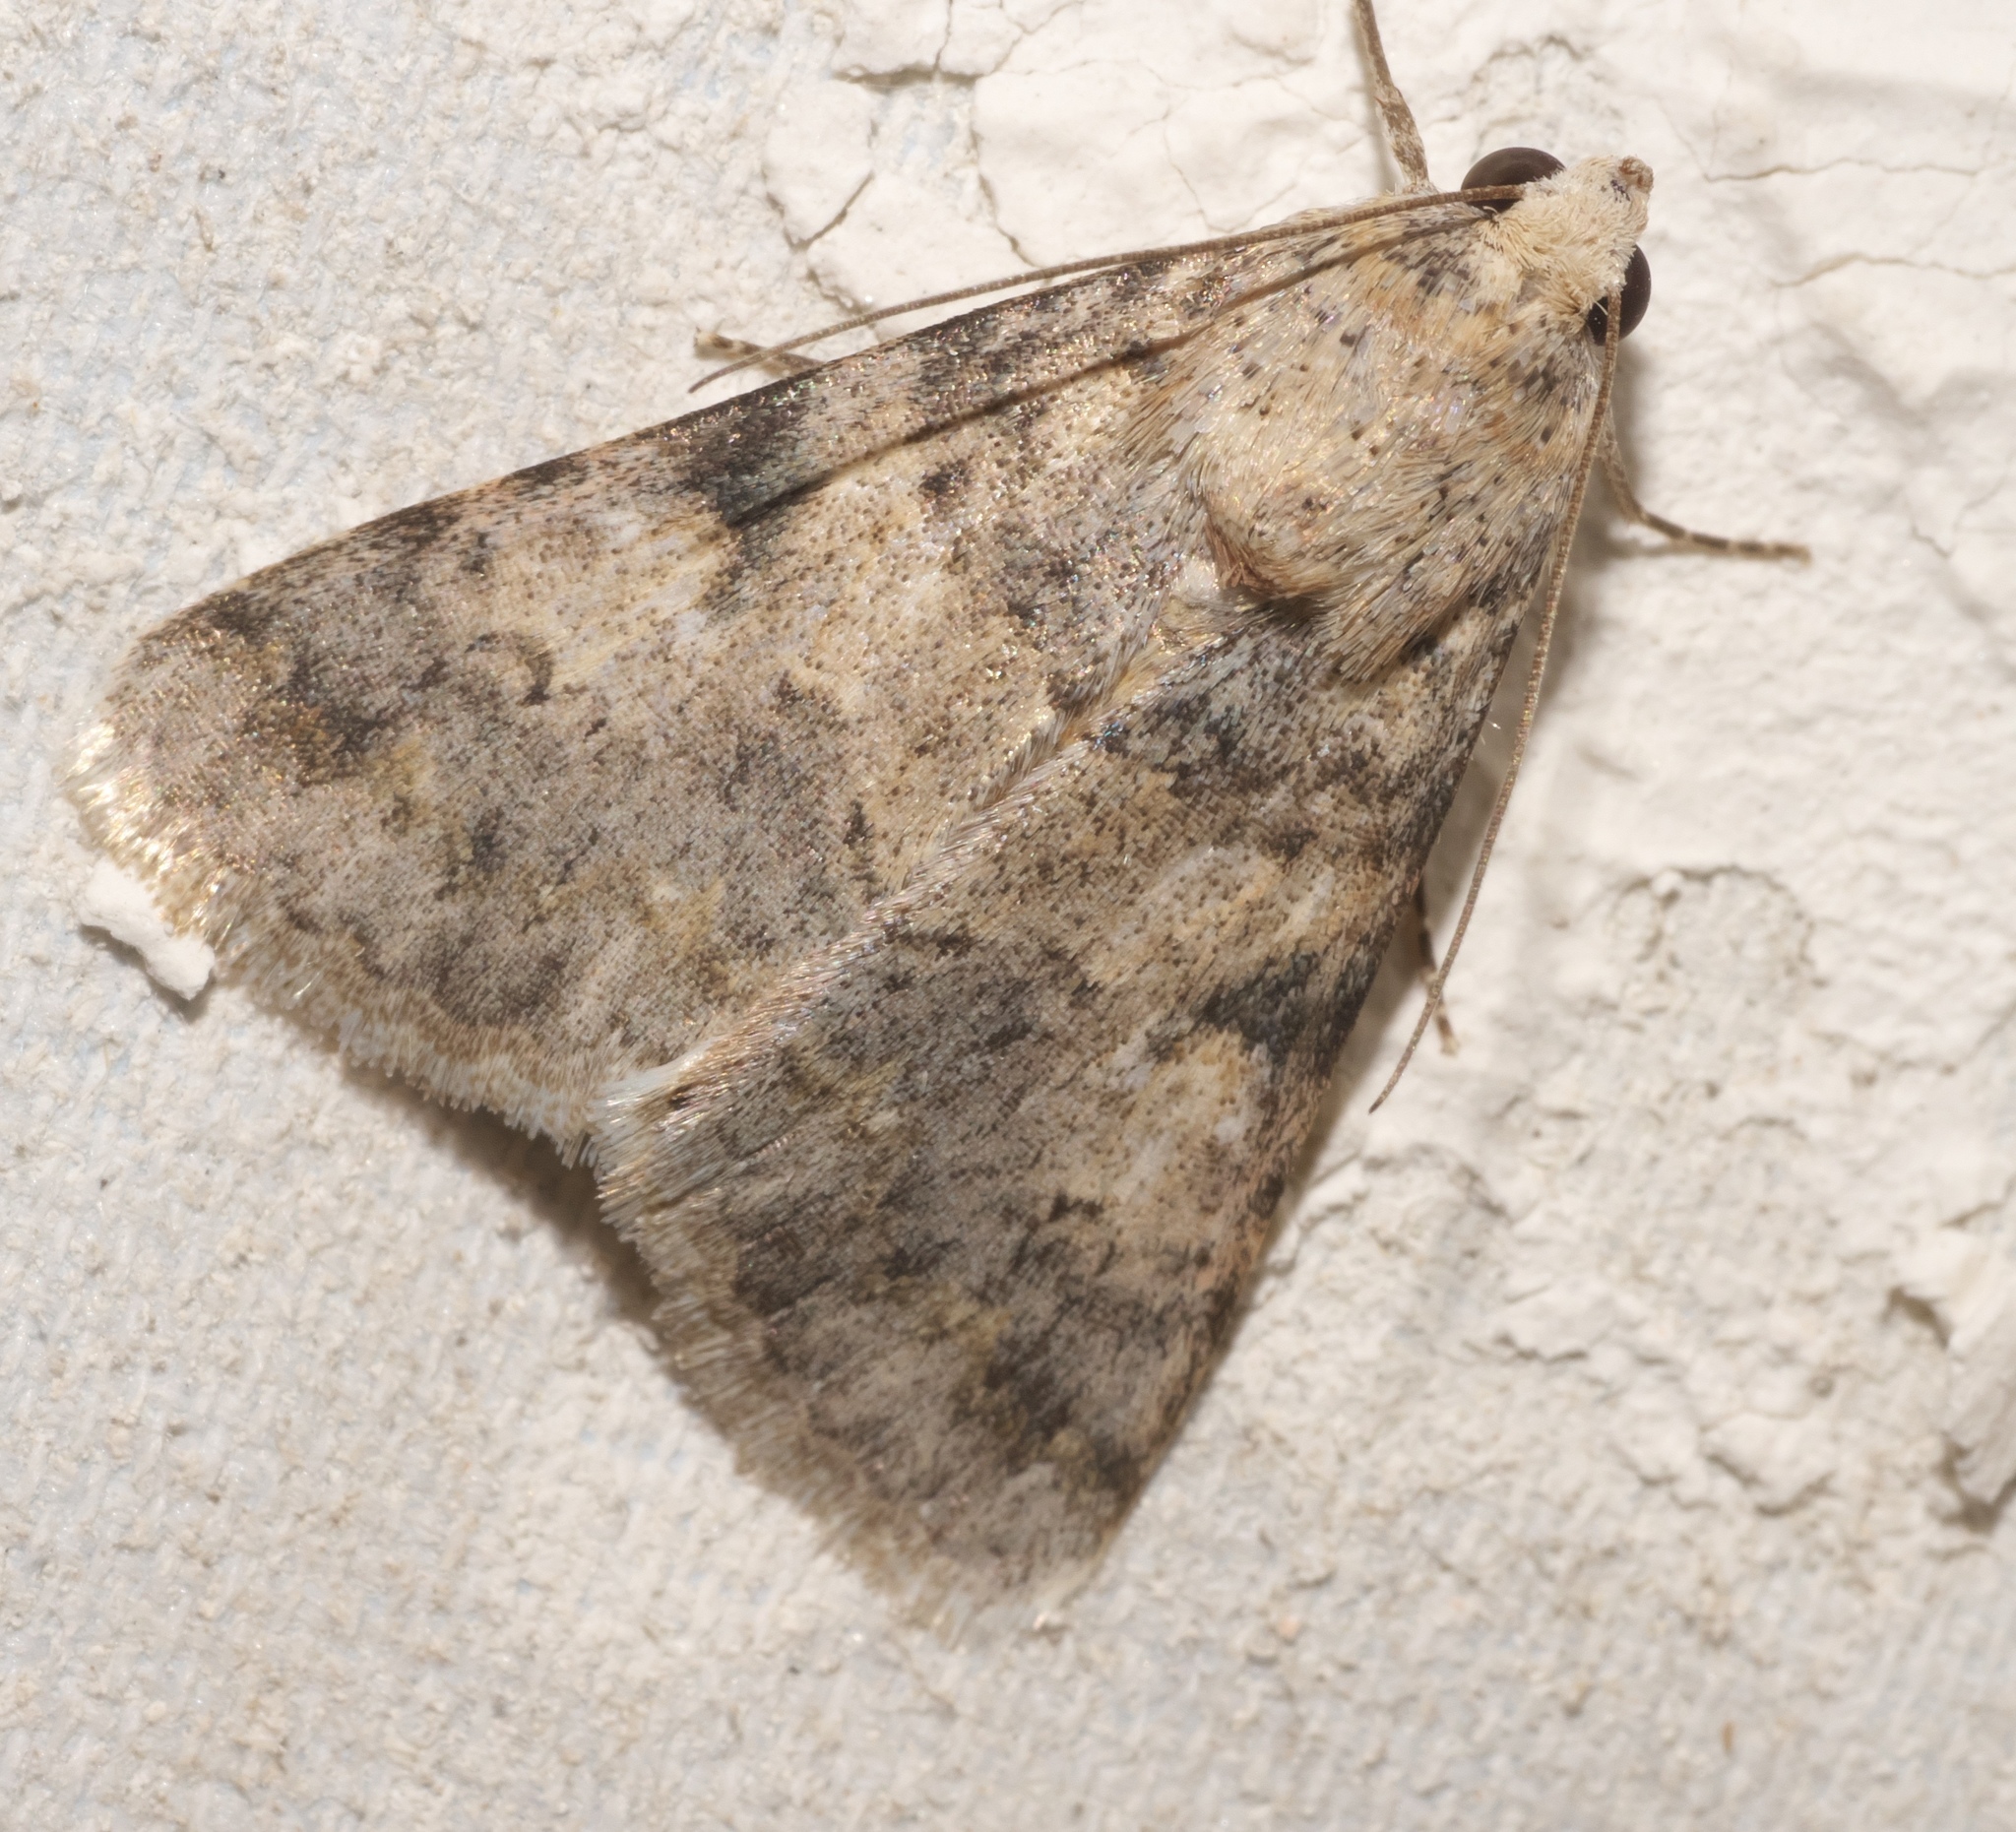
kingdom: Animalia
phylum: Arthropoda
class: Insecta
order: Lepidoptera
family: Erebidae
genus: Melipotis
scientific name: Melipotis jucunda
